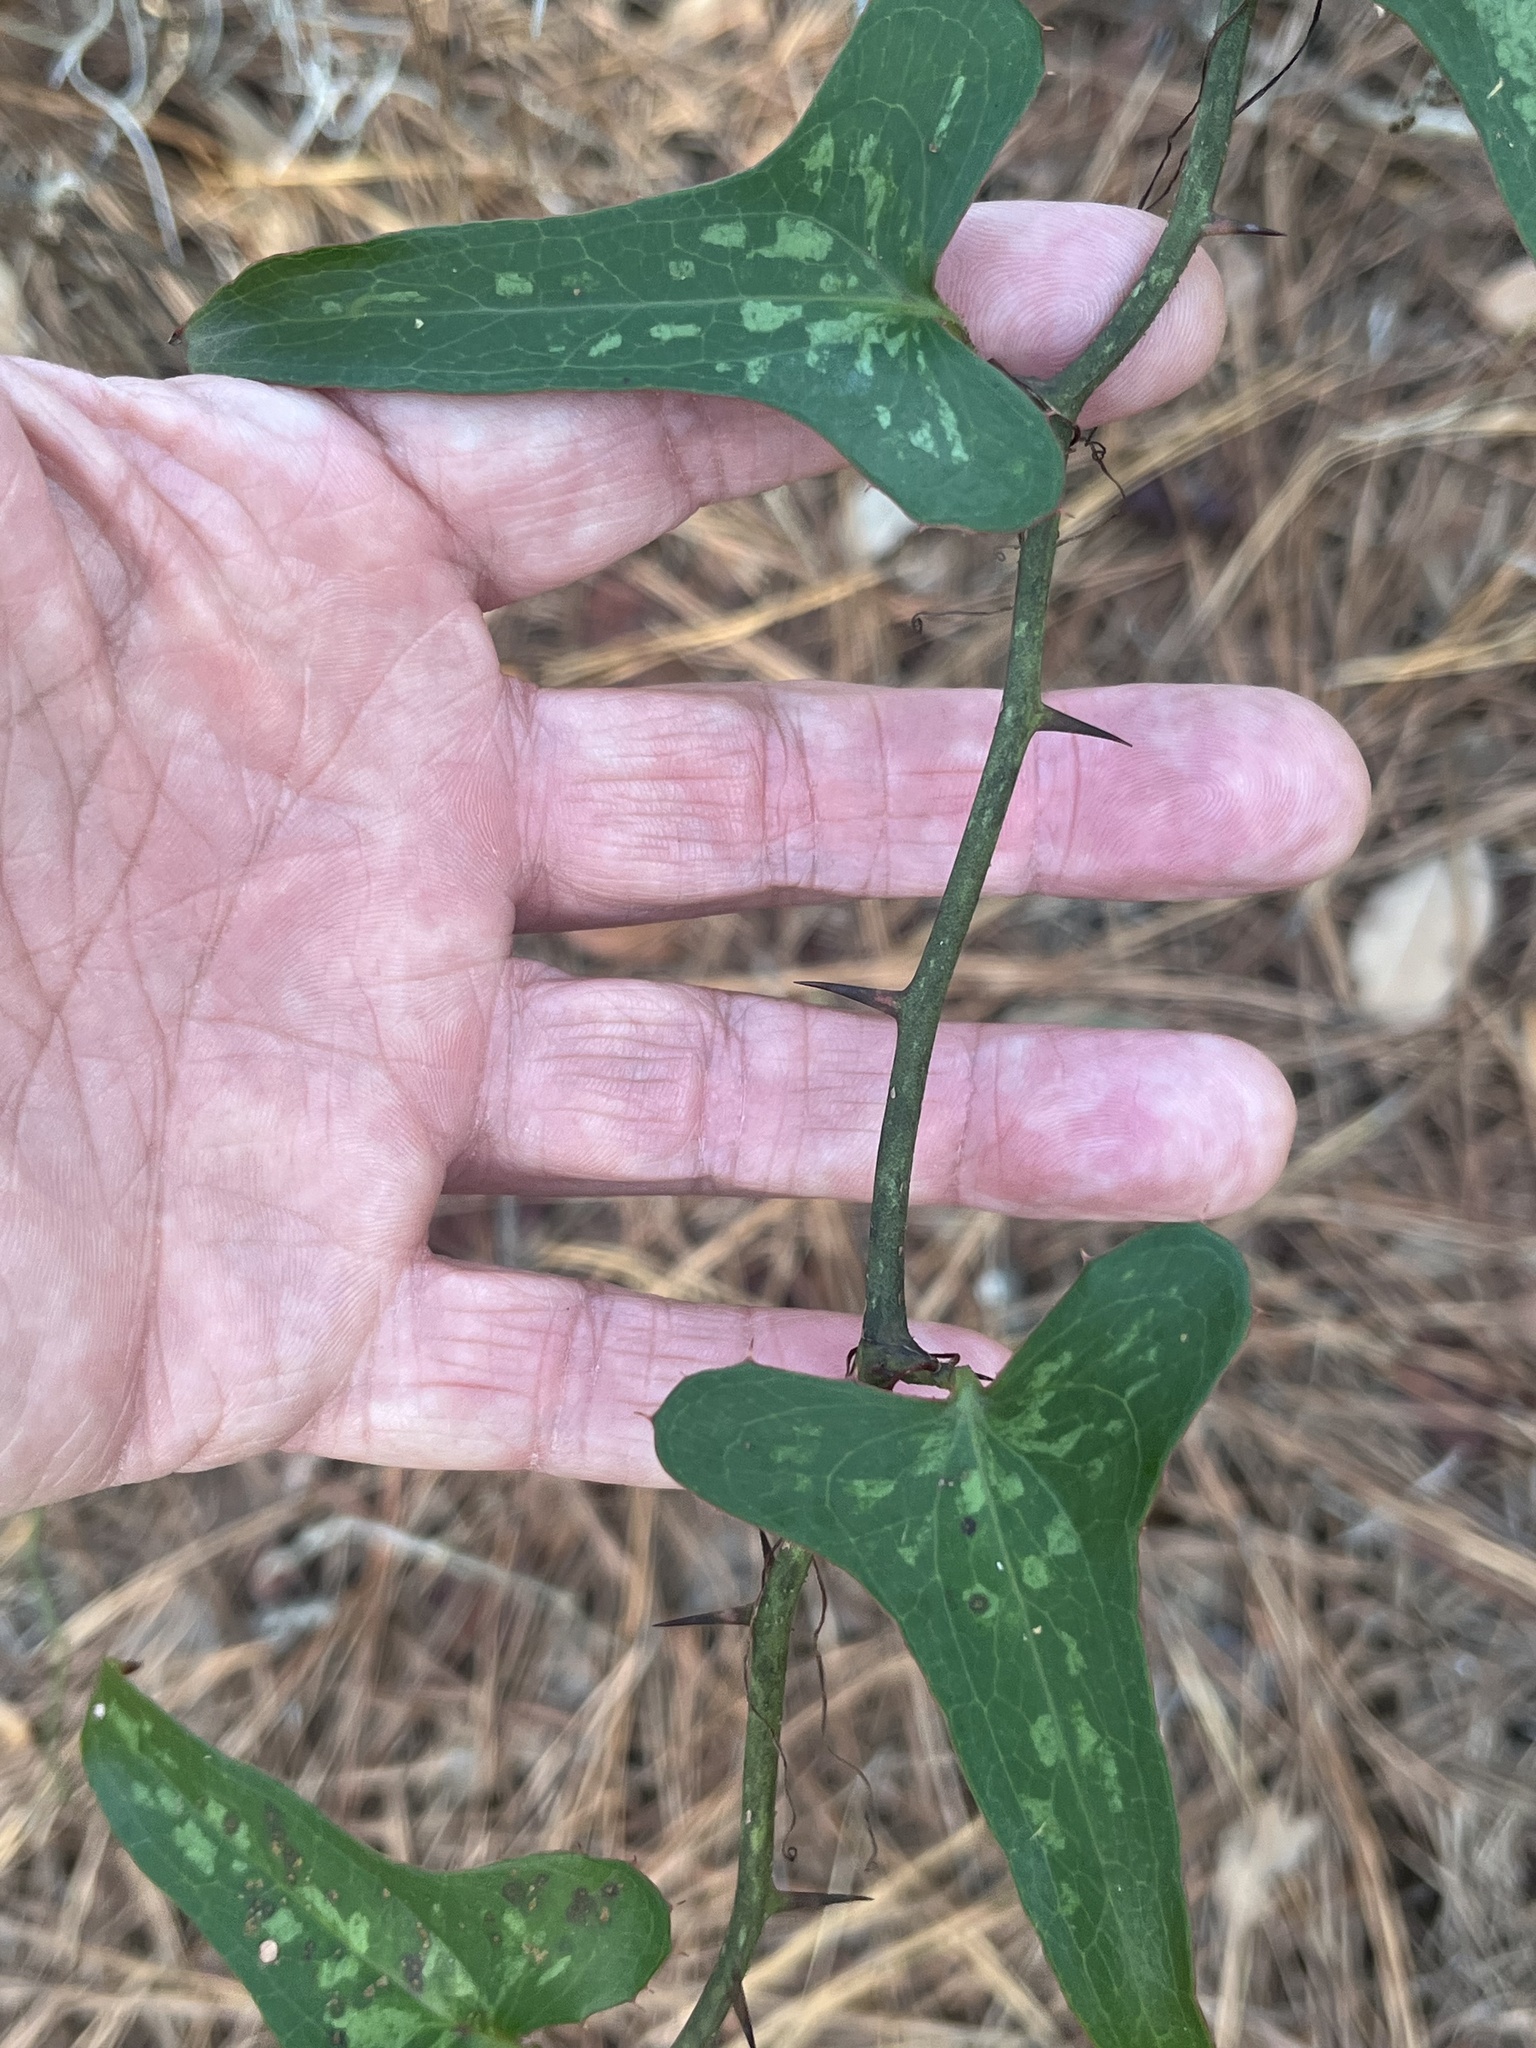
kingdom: Plantae
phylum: Tracheophyta
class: Liliopsida
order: Liliales
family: Smilacaceae
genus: Smilax
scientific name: Smilax bona-nox
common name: Catbrier
